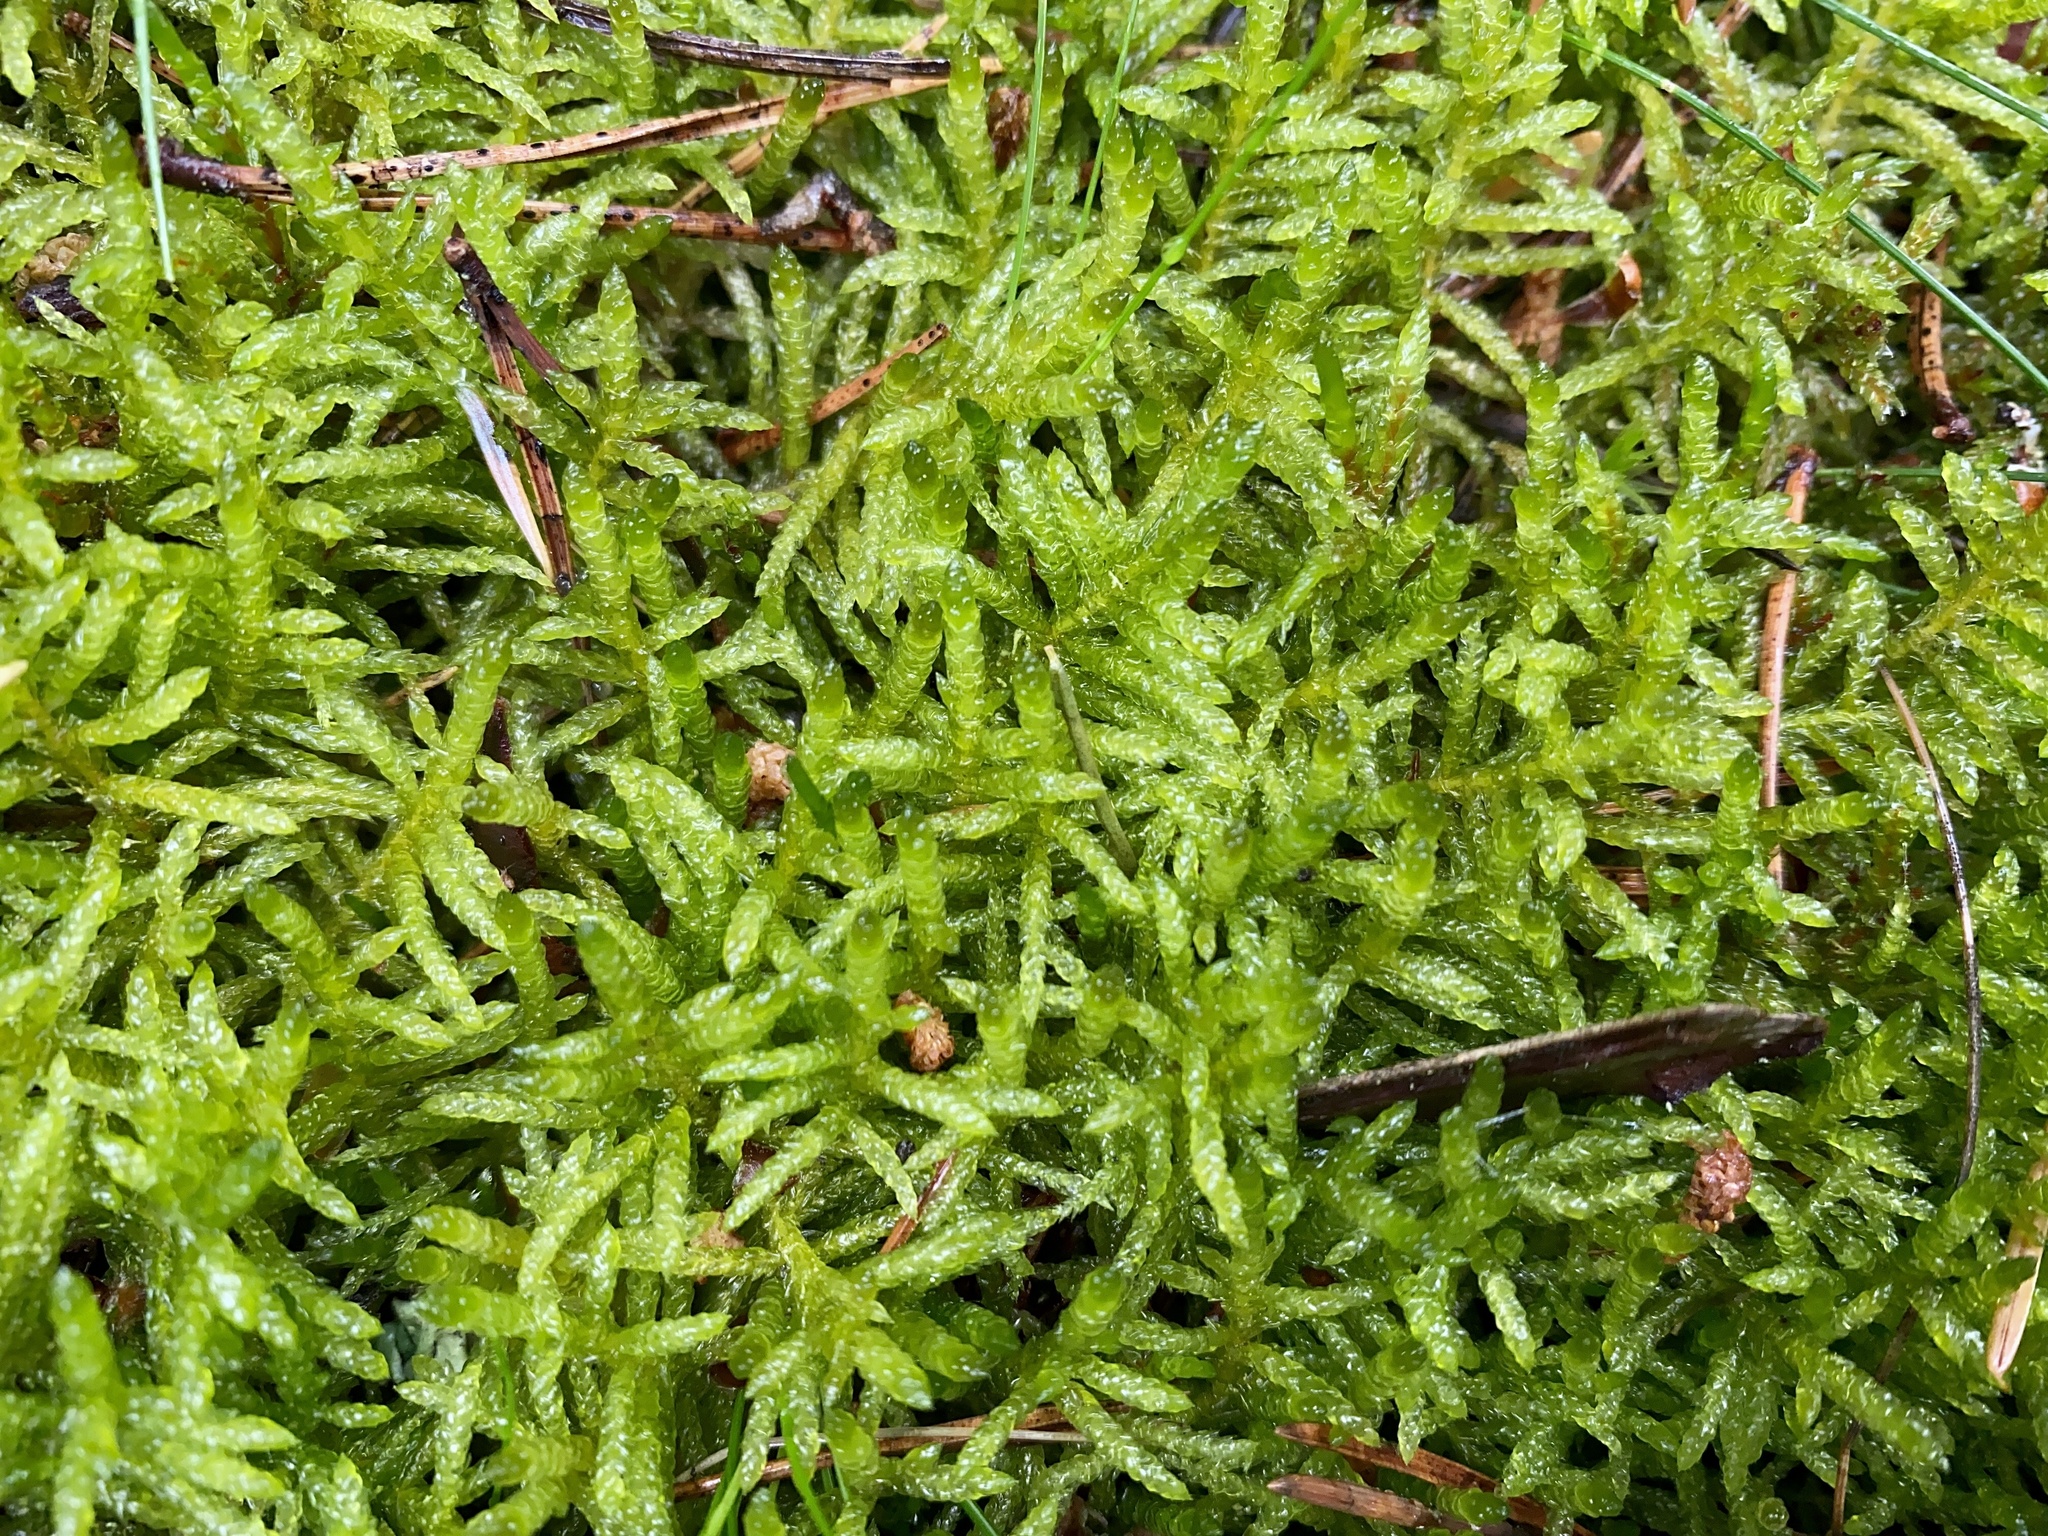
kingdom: Plantae
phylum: Bryophyta
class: Bryopsida
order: Hypnales
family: Brachytheciaceae
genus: Pseudoscleropodium
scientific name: Pseudoscleropodium purum
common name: Neat feather-moss
